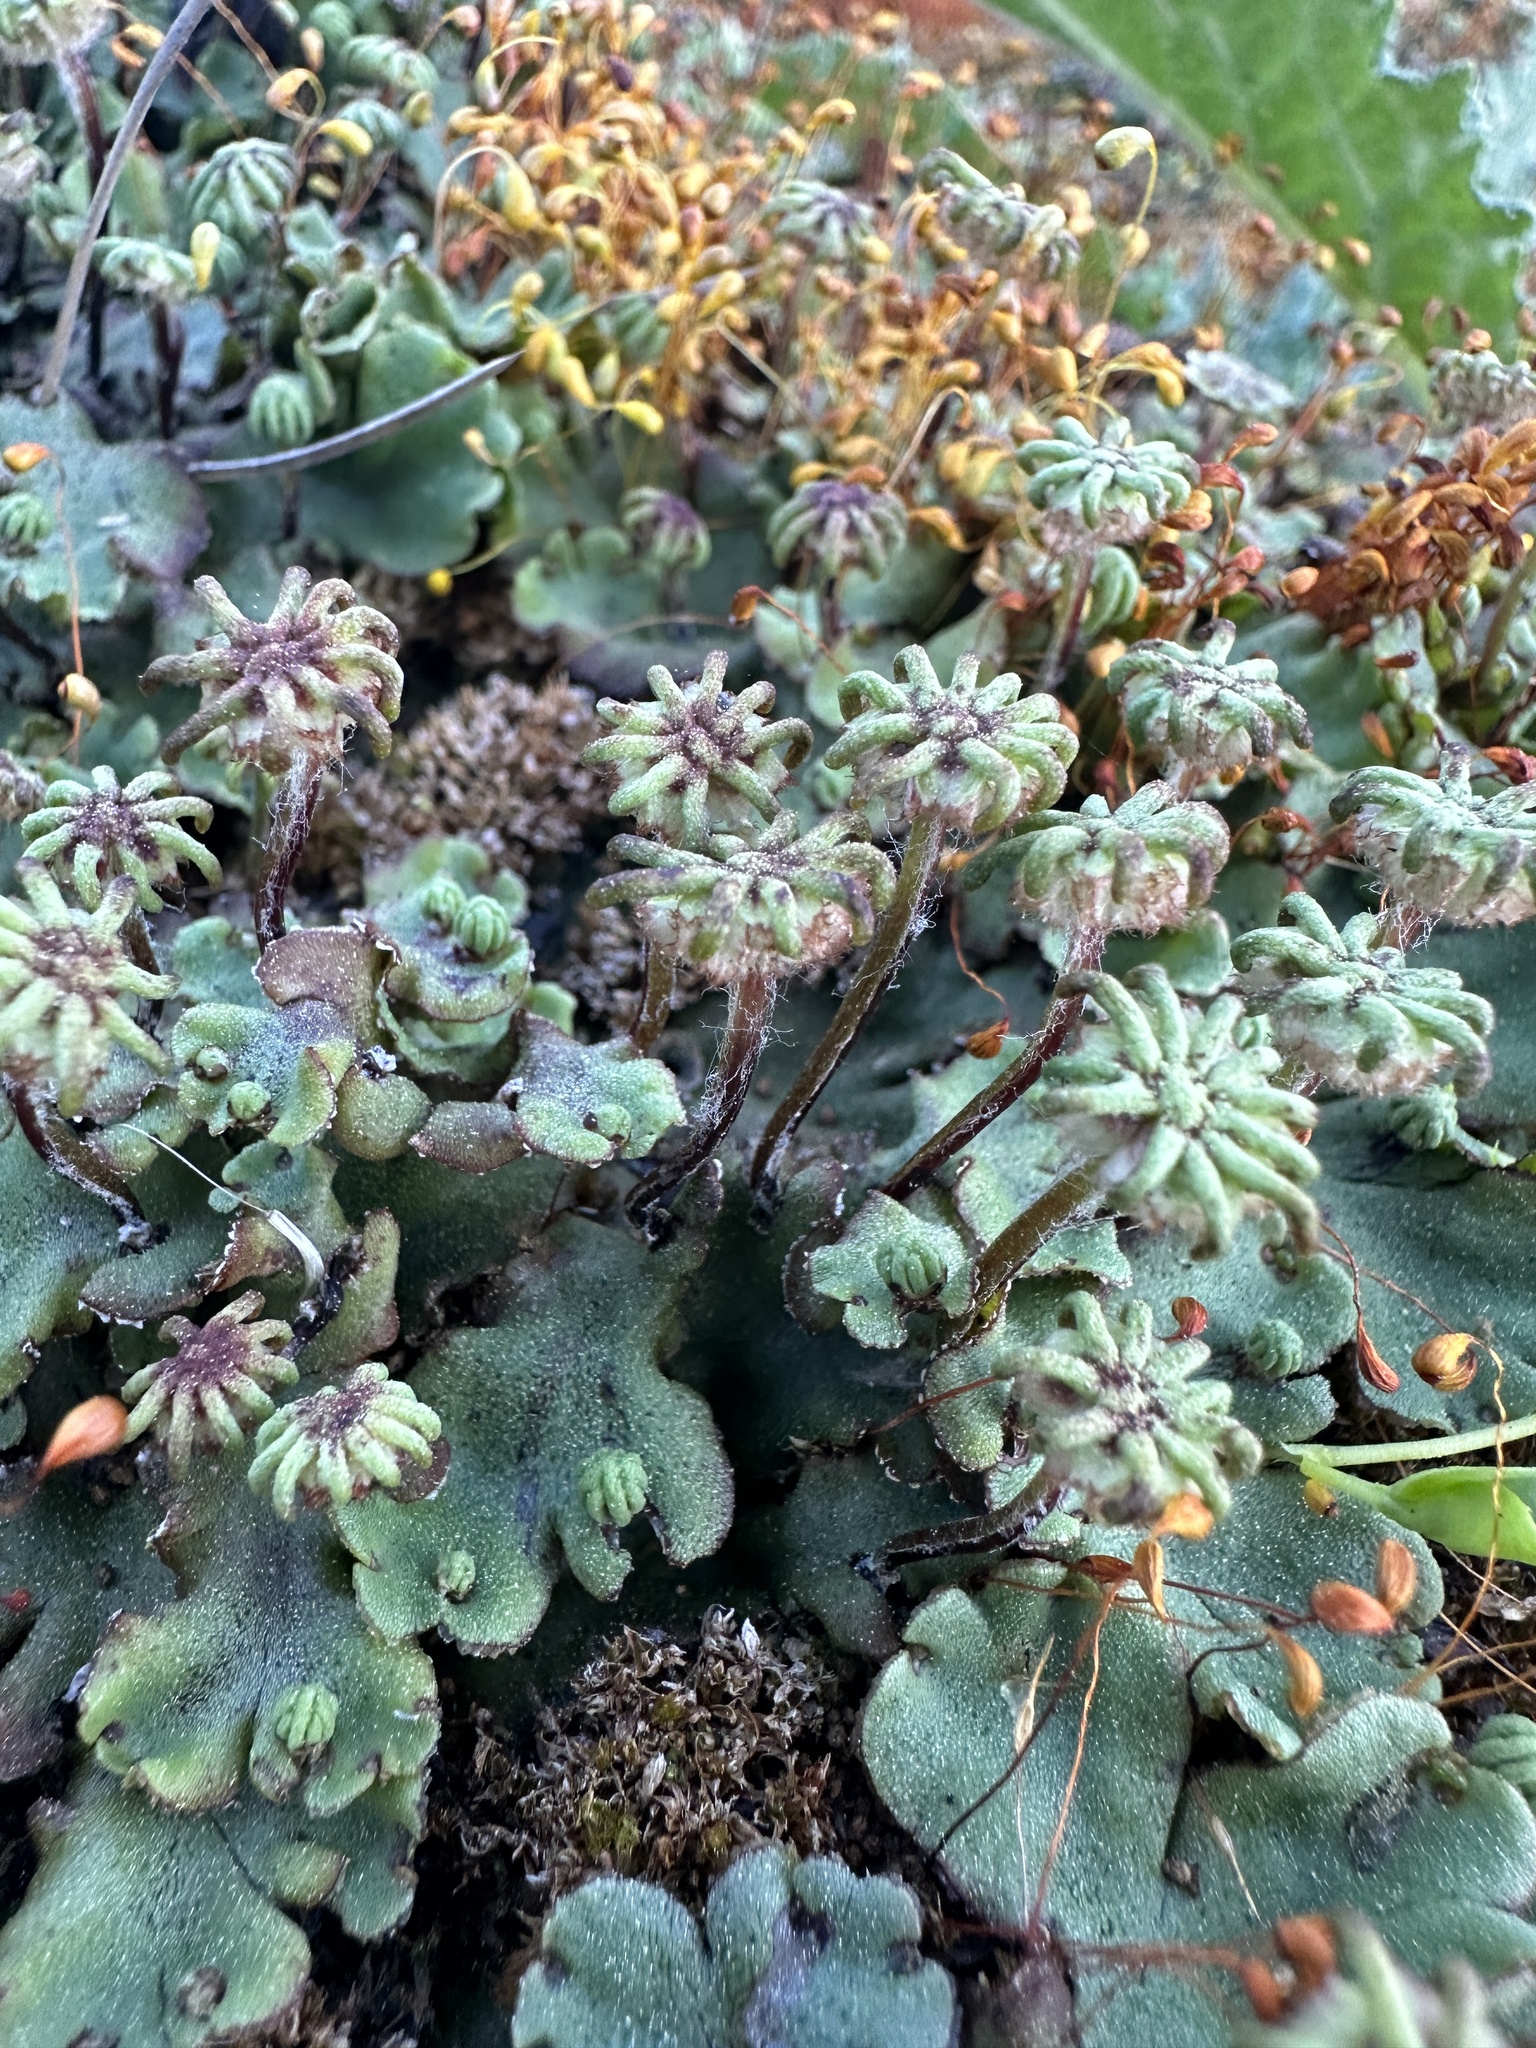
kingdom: Plantae
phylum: Marchantiophyta
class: Marchantiopsida
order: Marchantiales
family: Marchantiaceae
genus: Marchantia
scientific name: Marchantia polymorpha
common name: Common liverwort
